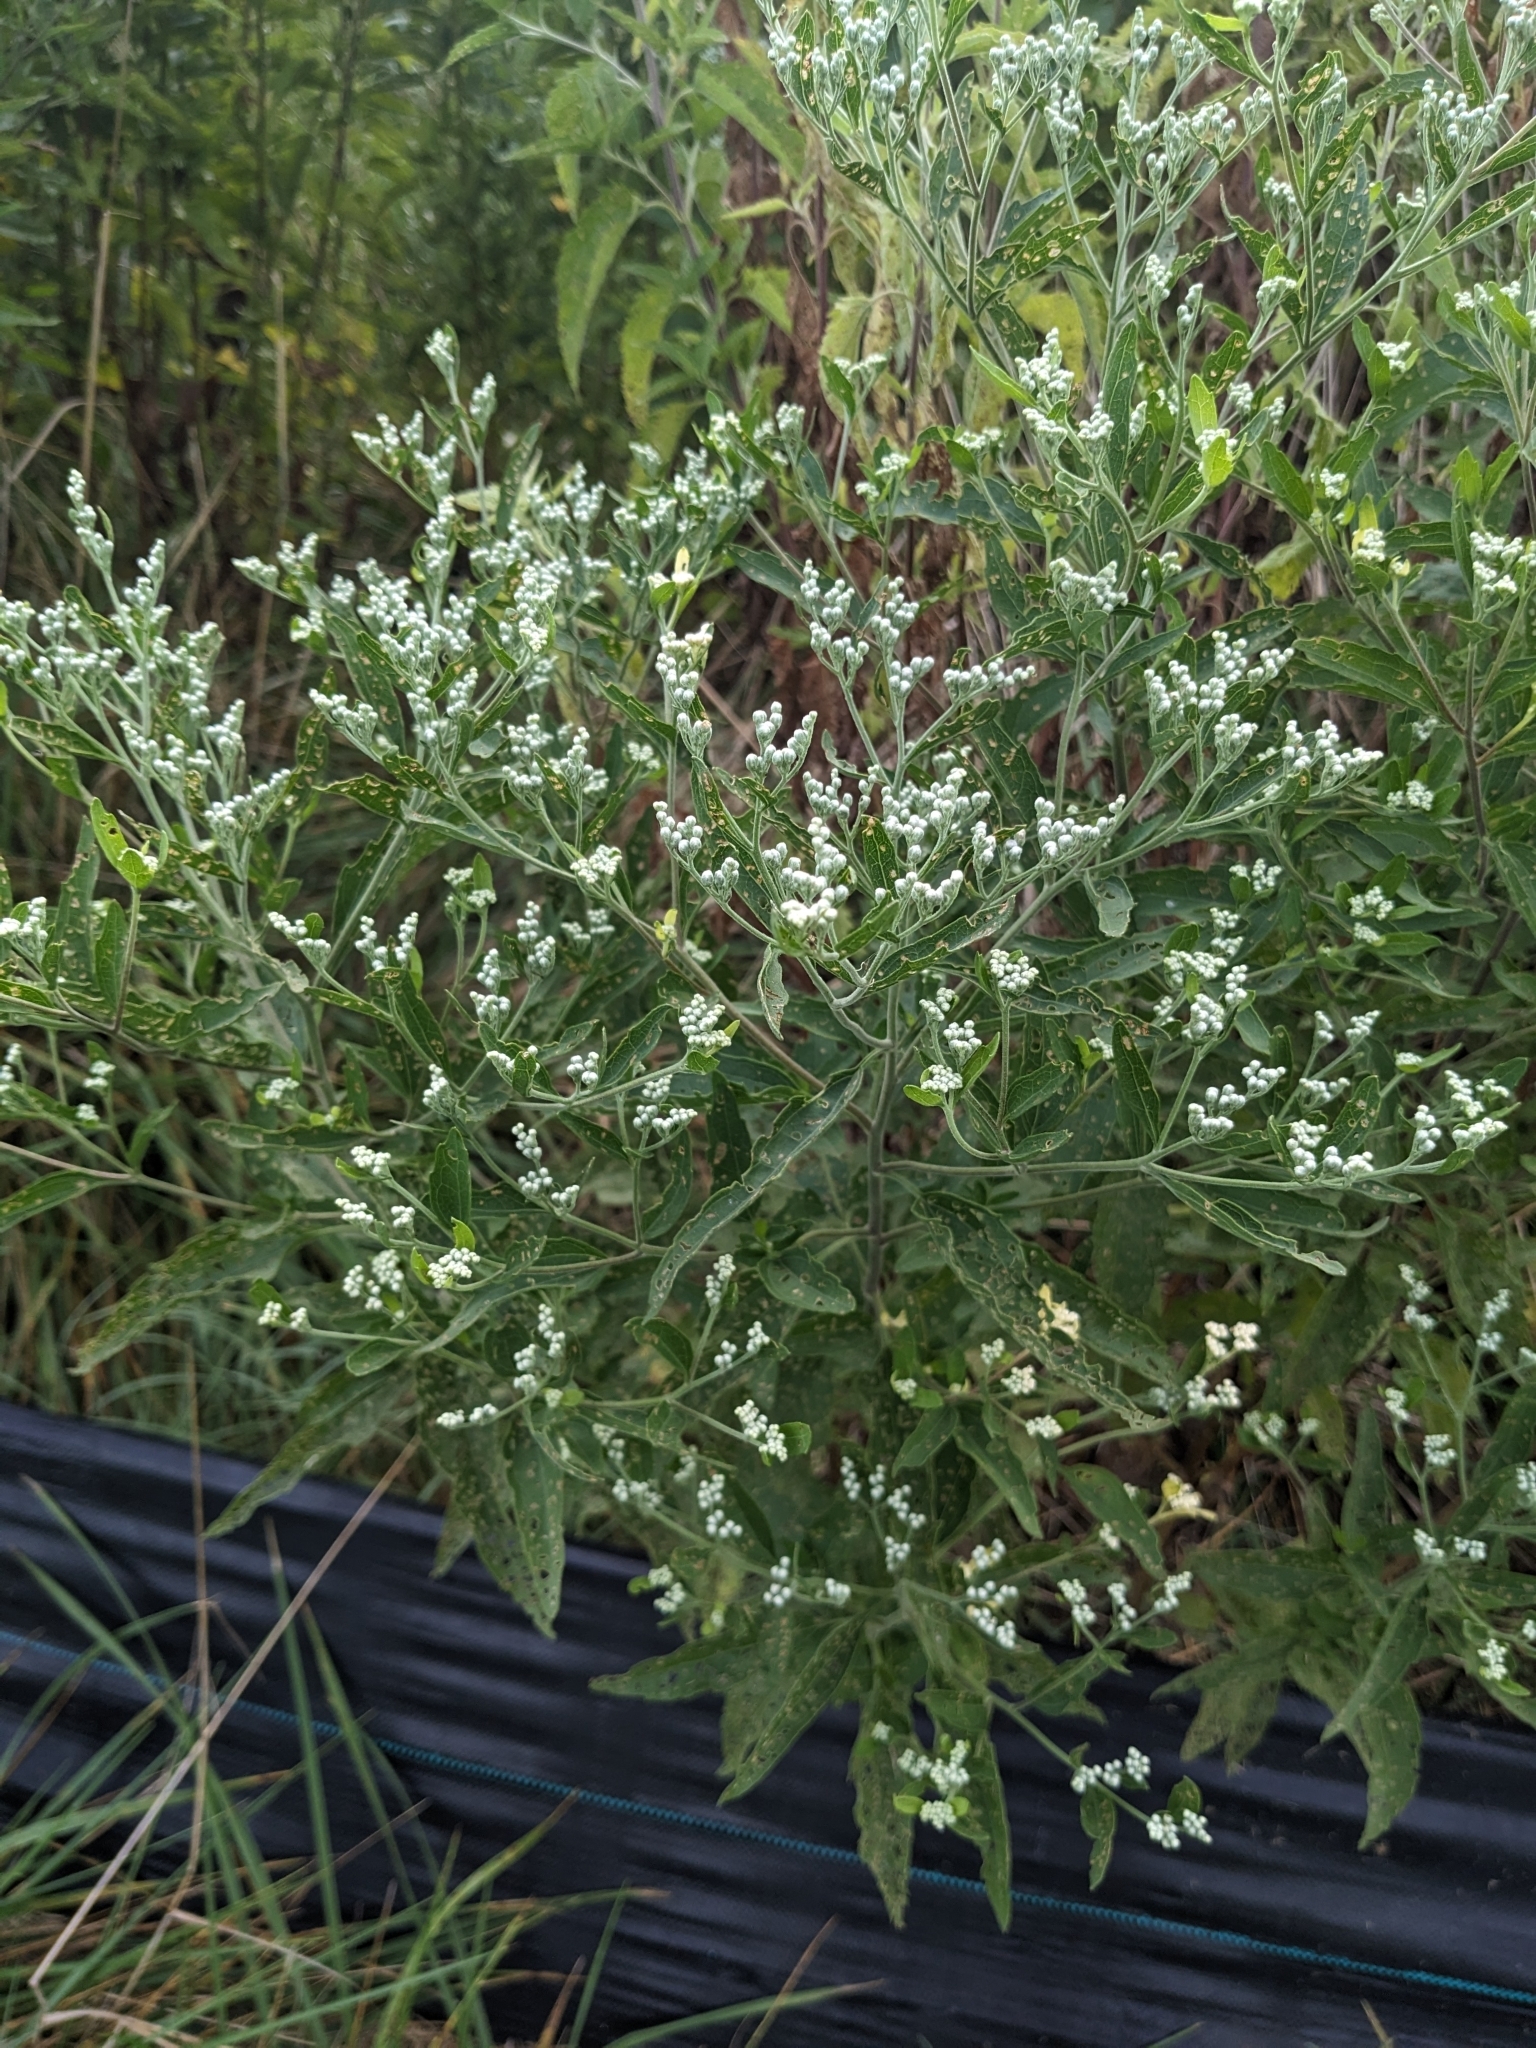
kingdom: Plantae
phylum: Tracheophyta
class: Magnoliopsida
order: Asterales
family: Asteraceae
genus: Eupatorium
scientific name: Eupatorium serotinum
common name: Late boneset
